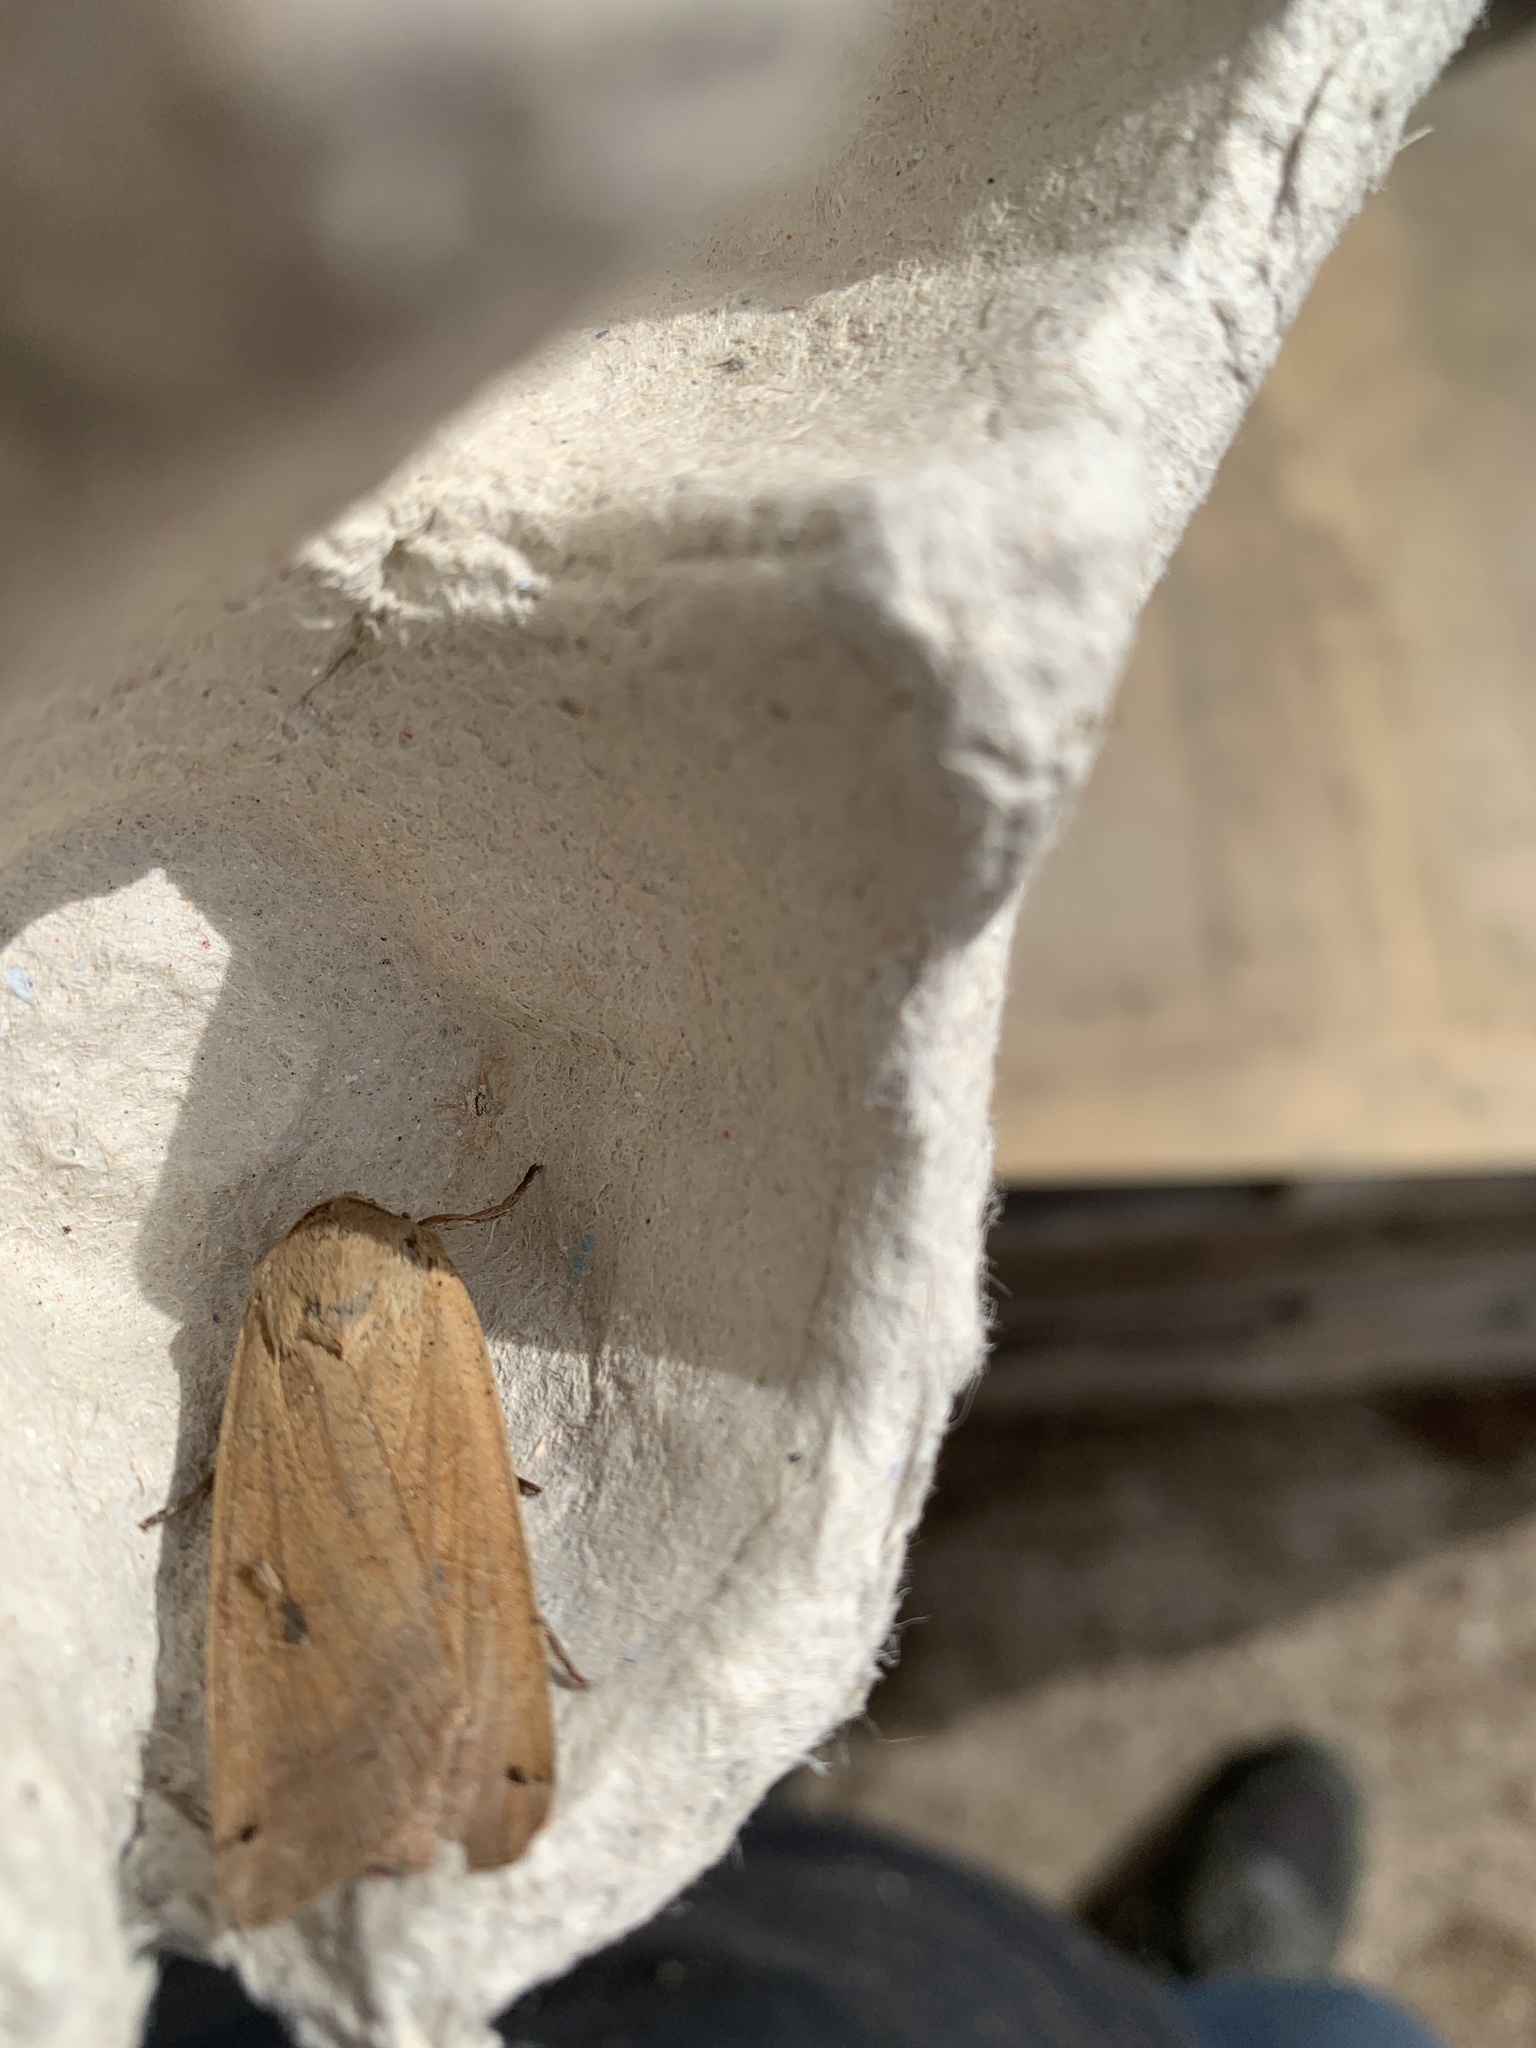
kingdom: Animalia
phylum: Arthropoda
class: Insecta
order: Lepidoptera
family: Noctuidae
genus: Noctua
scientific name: Noctua pronuba
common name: Large yellow underwing
